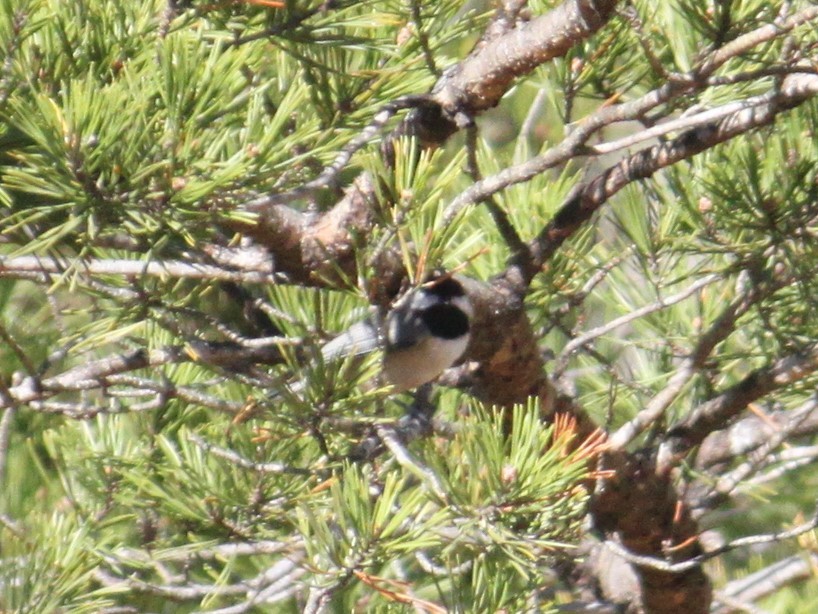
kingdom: Animalia
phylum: Chordata
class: Aves
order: Passeriformes
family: Paridae
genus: Poecile
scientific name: Poecile carolinensis
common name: Carolina chickadee
